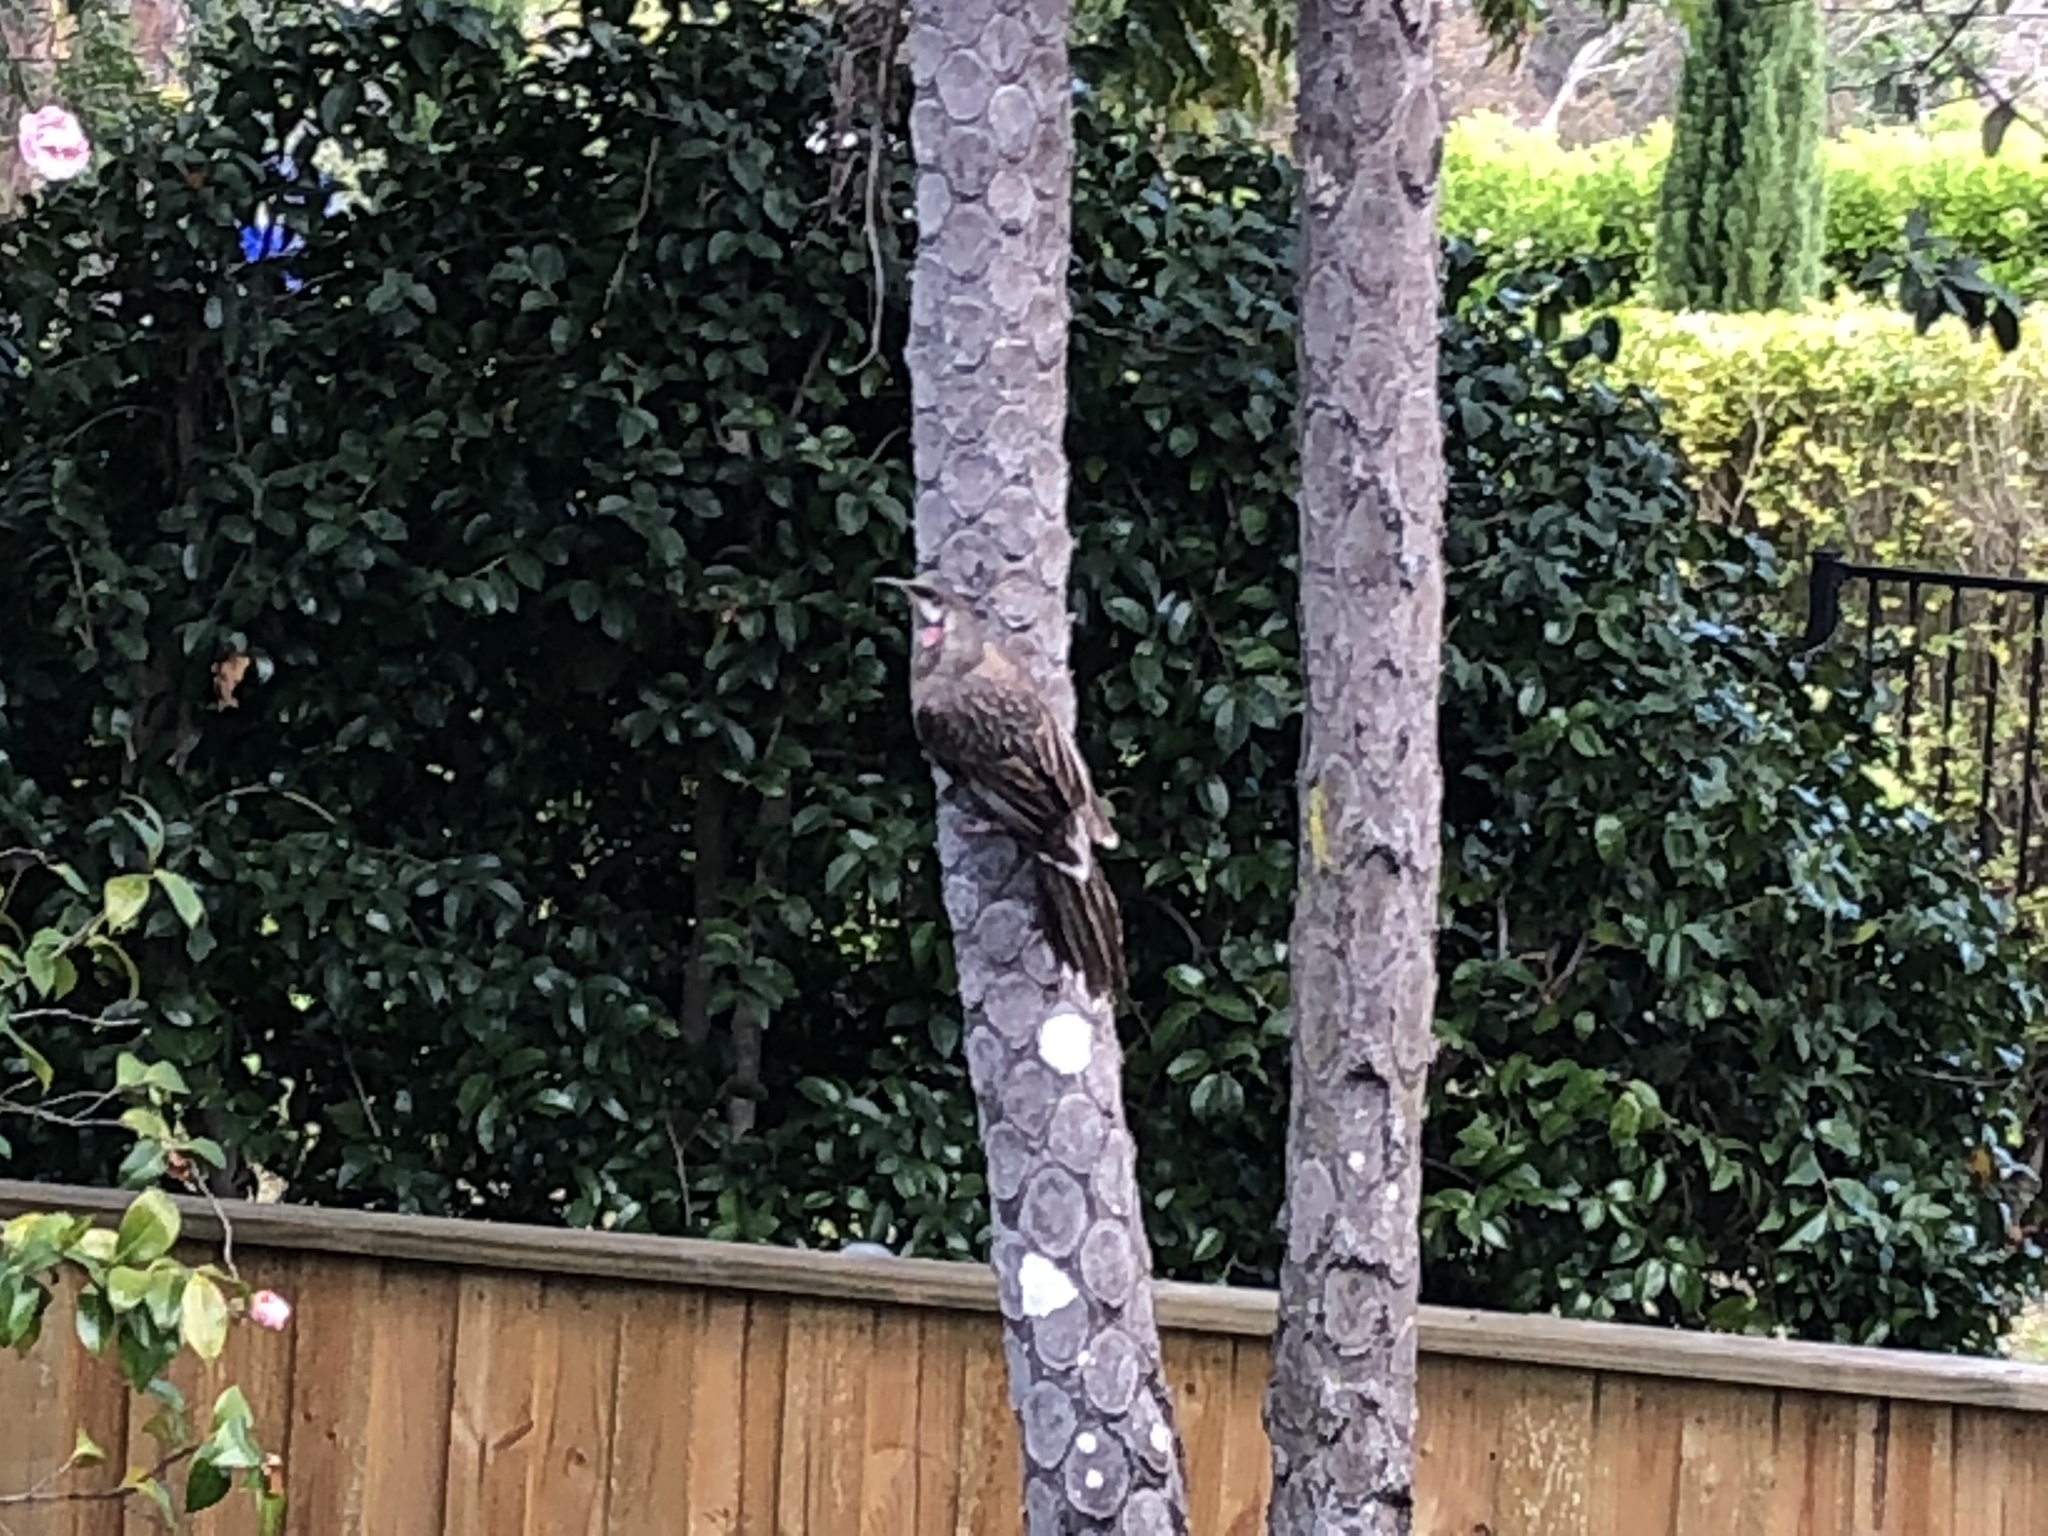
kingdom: Animalia
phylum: Chordata
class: Aves
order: Passeriformes
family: Meliphagidae
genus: Anthochaera
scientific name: Anthochaera carunculata
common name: Red wattlebird
